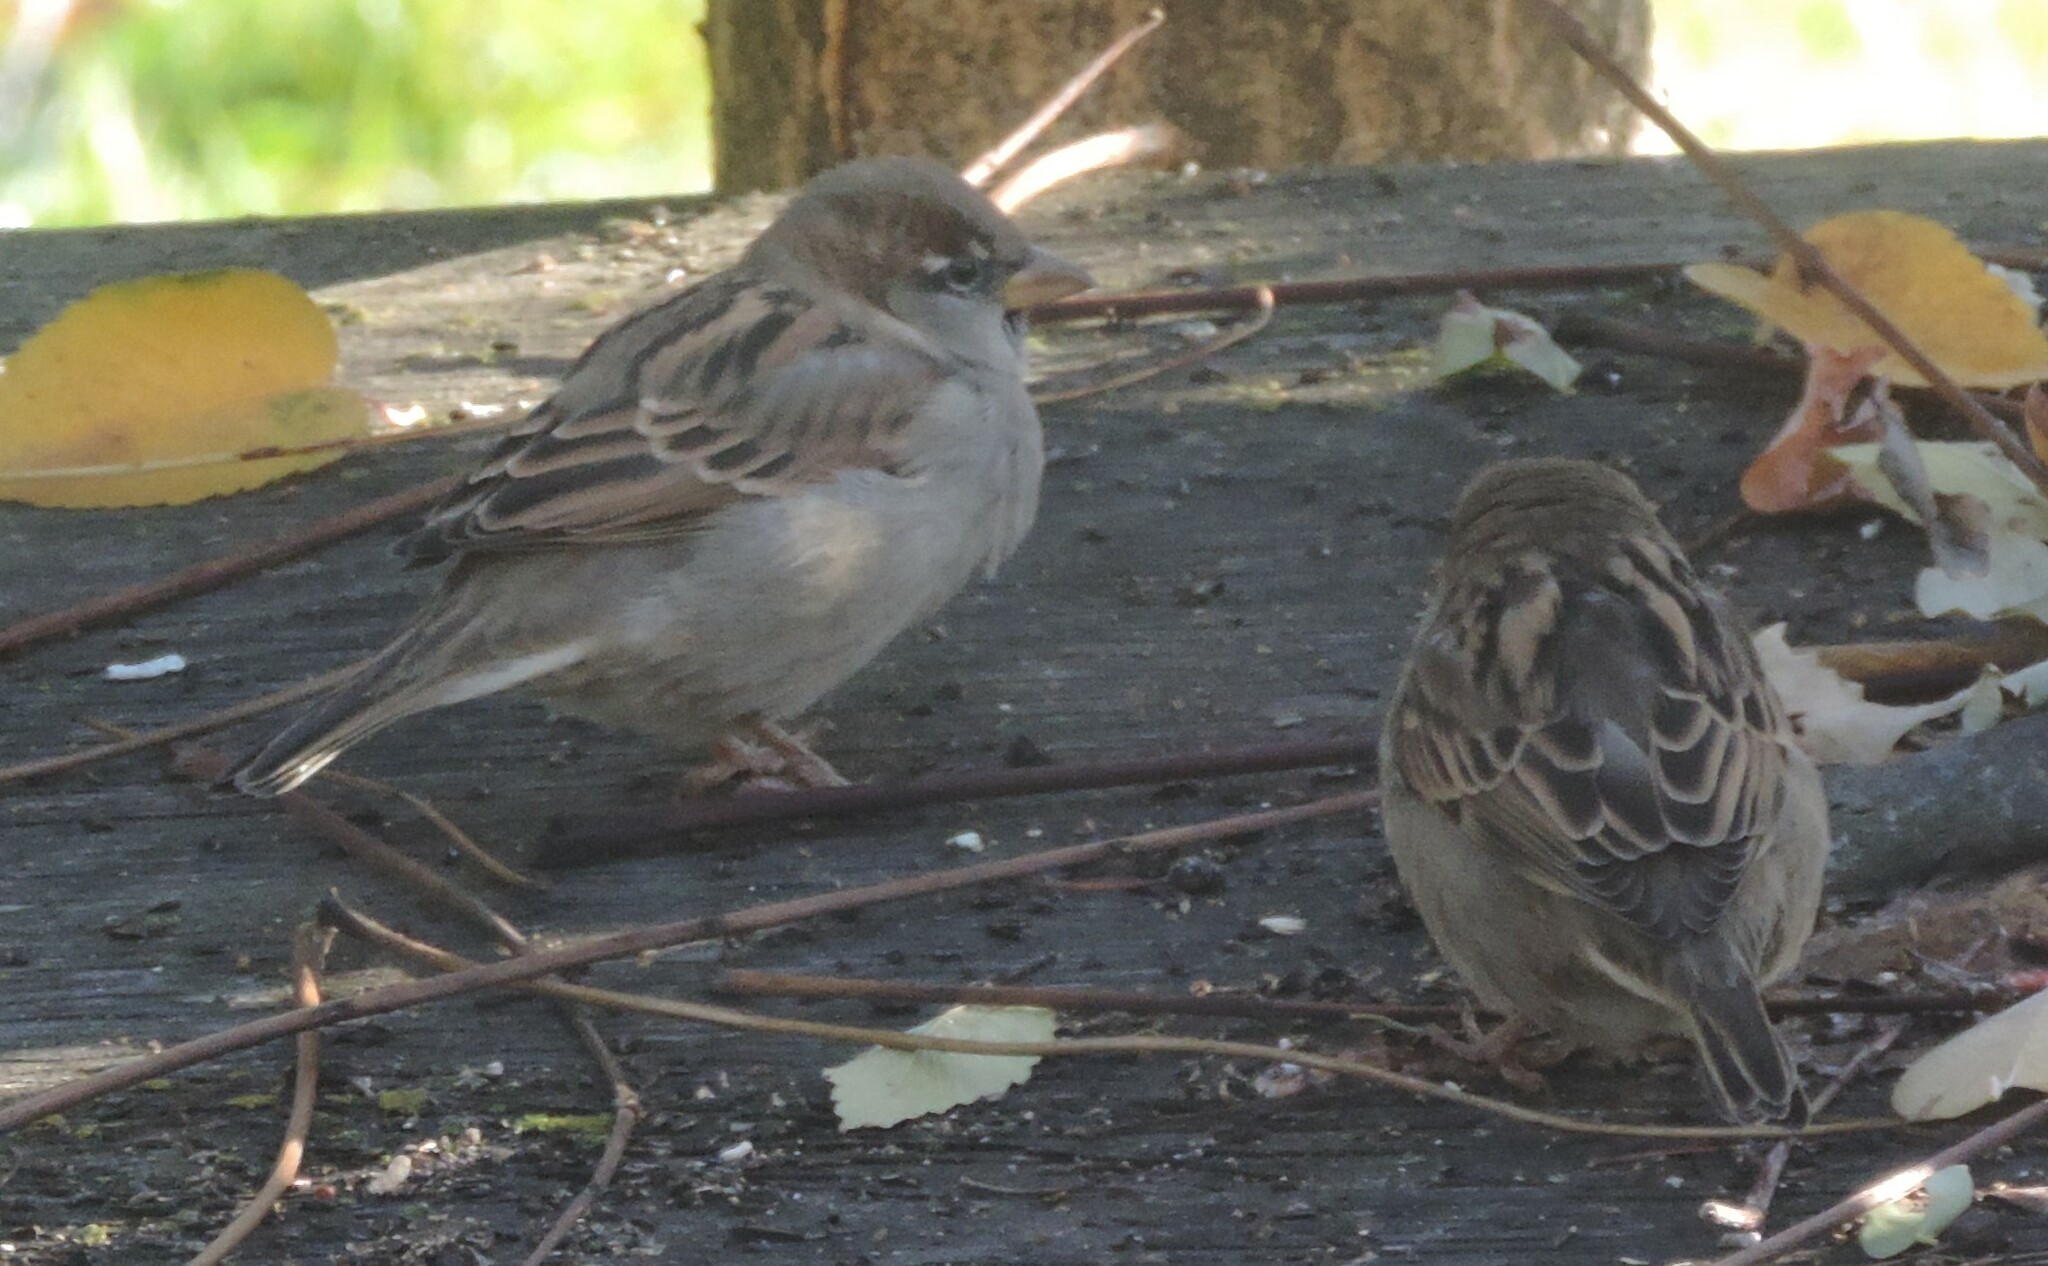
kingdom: Animalia
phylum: Chordata
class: Aves
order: Passeriformes
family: Passeridae
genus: Passer
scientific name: Passer domesticus
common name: House sparrow
